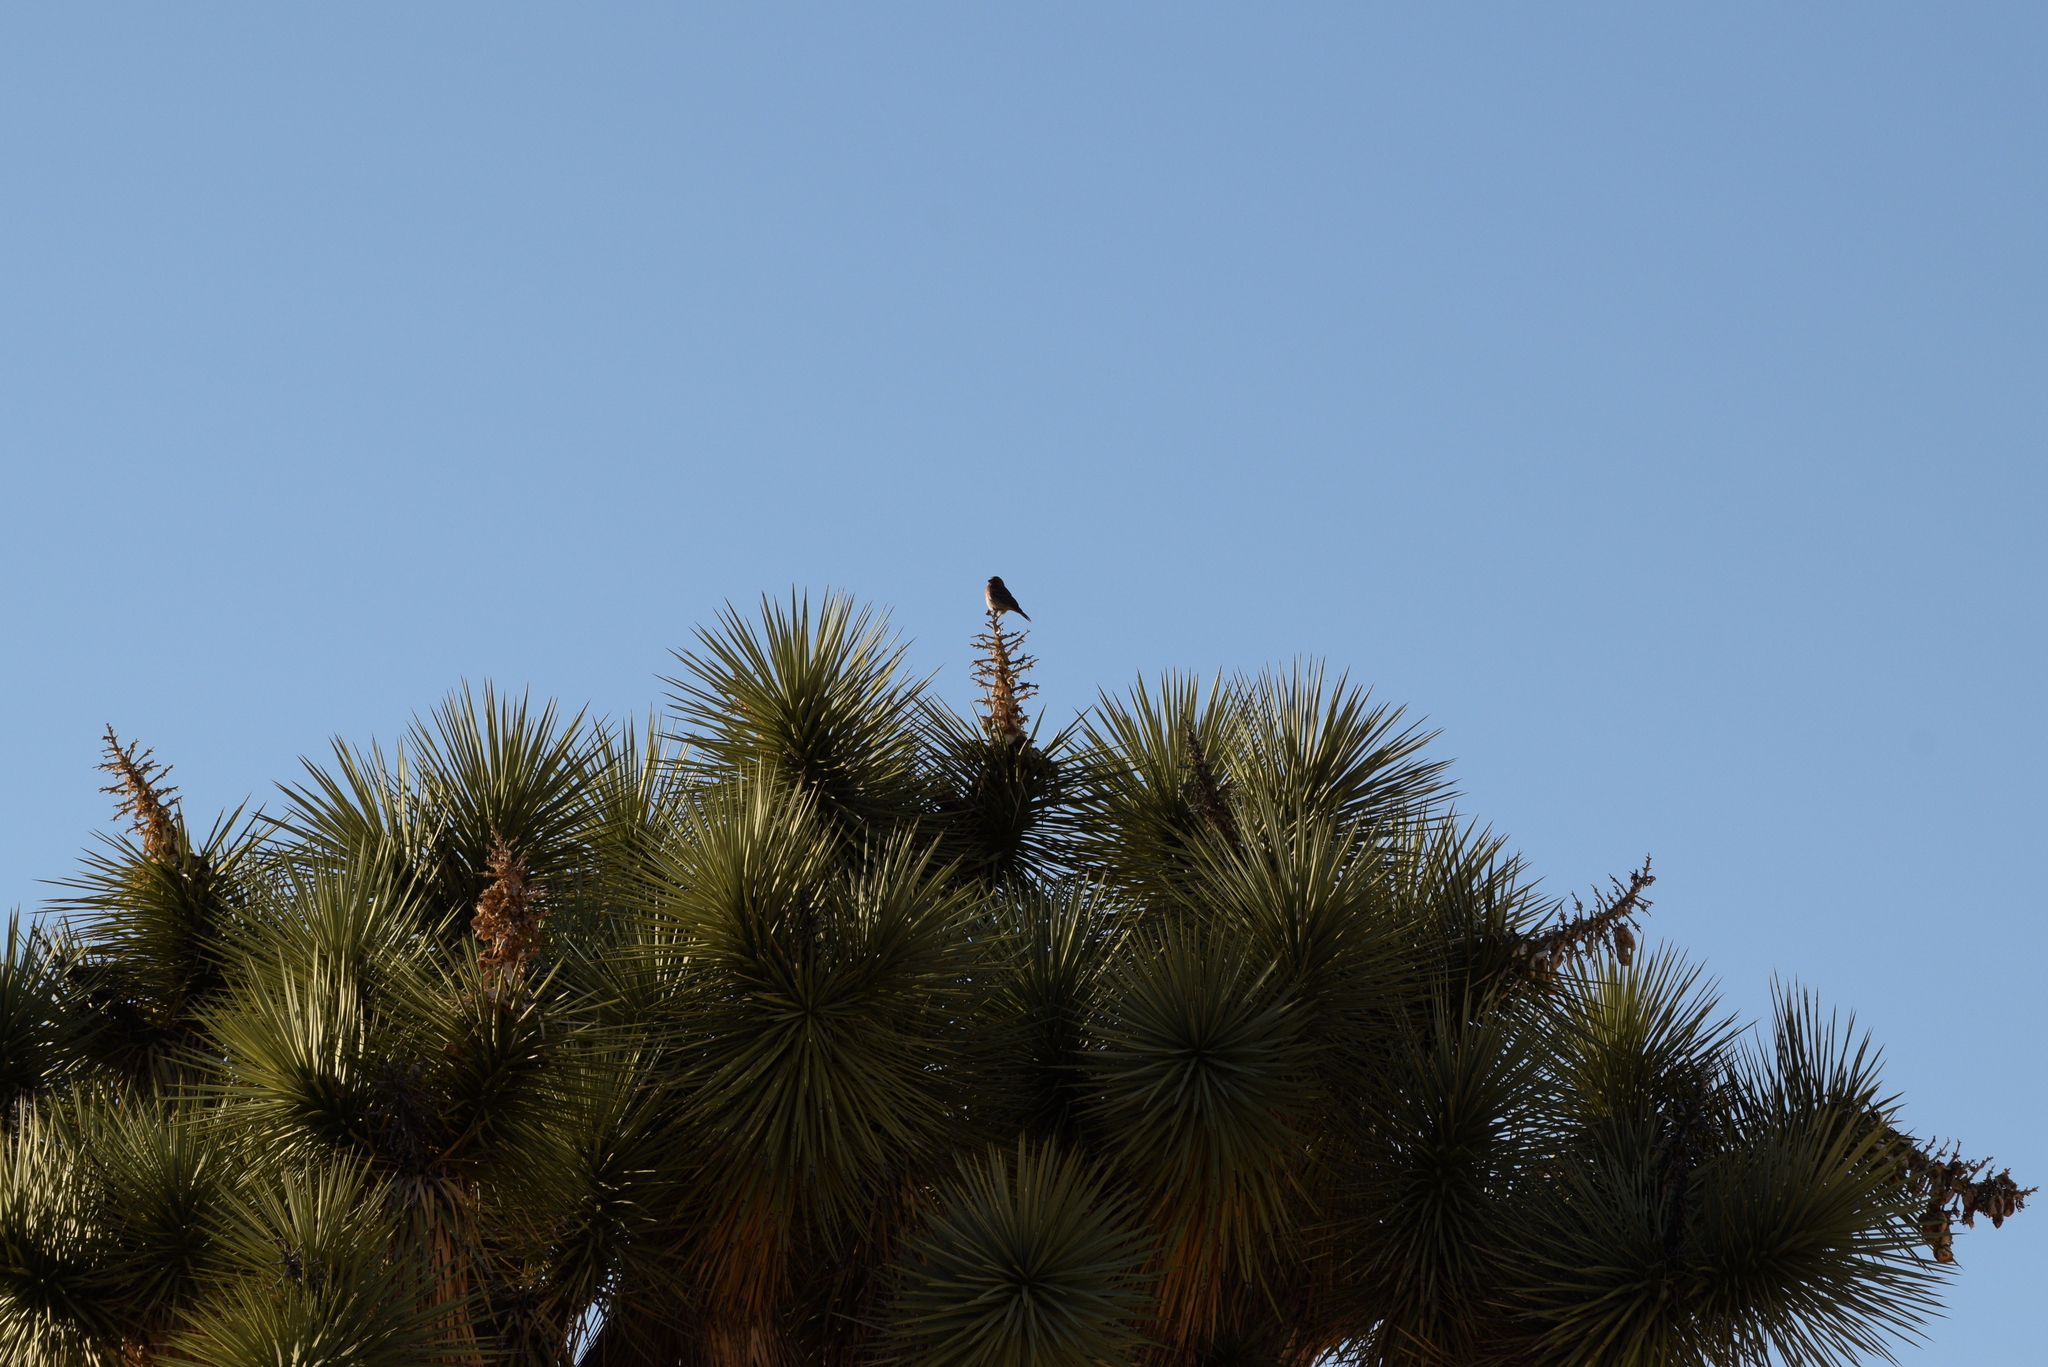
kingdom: Animalia
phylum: Chordata
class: Aves
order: Passeriformes
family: Fringillidae
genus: Haemorhous
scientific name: Haemorhous mexicanus
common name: House finch
